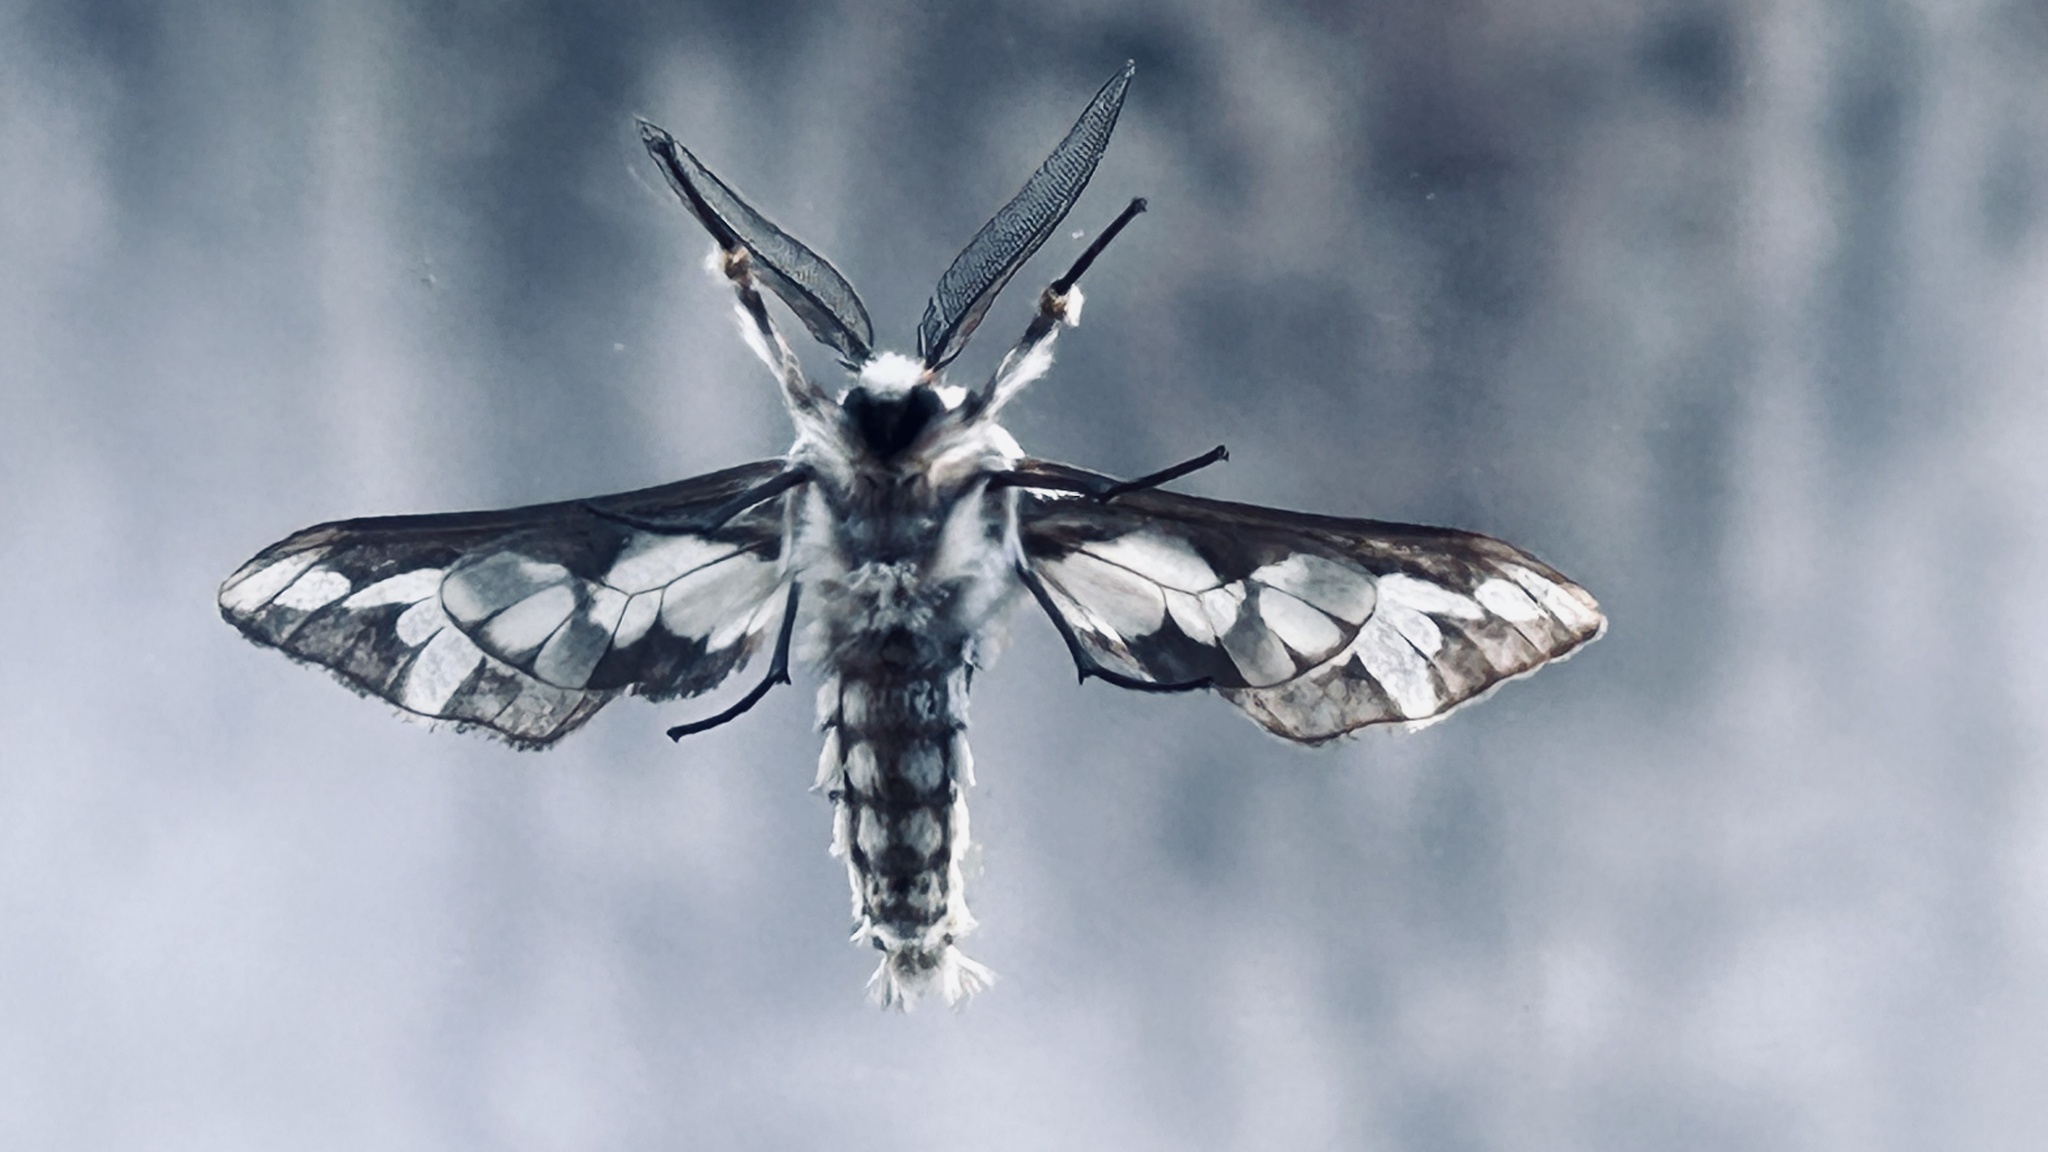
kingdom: Animalia
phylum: Arthropoda
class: Insecta
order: Lepidoptera
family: Erebidae
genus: Thyretes
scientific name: Thyretes hippotes
